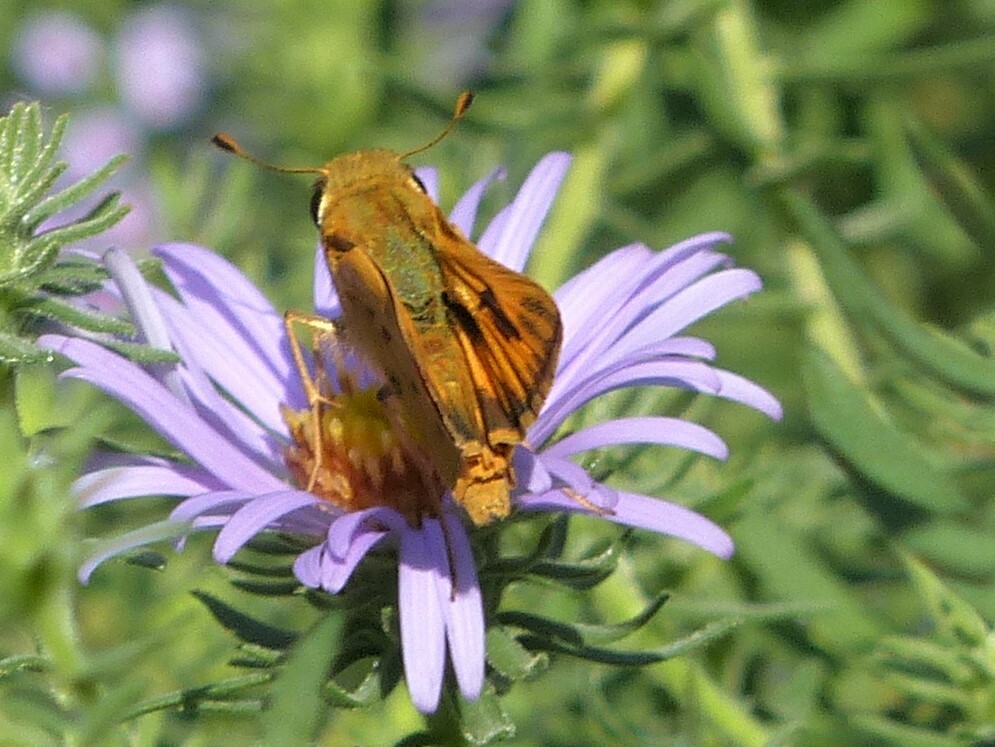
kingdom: Animalia
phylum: Arthropoda
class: Insecta
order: Lepidoptera
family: Hesperiidae
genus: Hylephila
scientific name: Hylephila phyleus
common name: Fiery skipper
